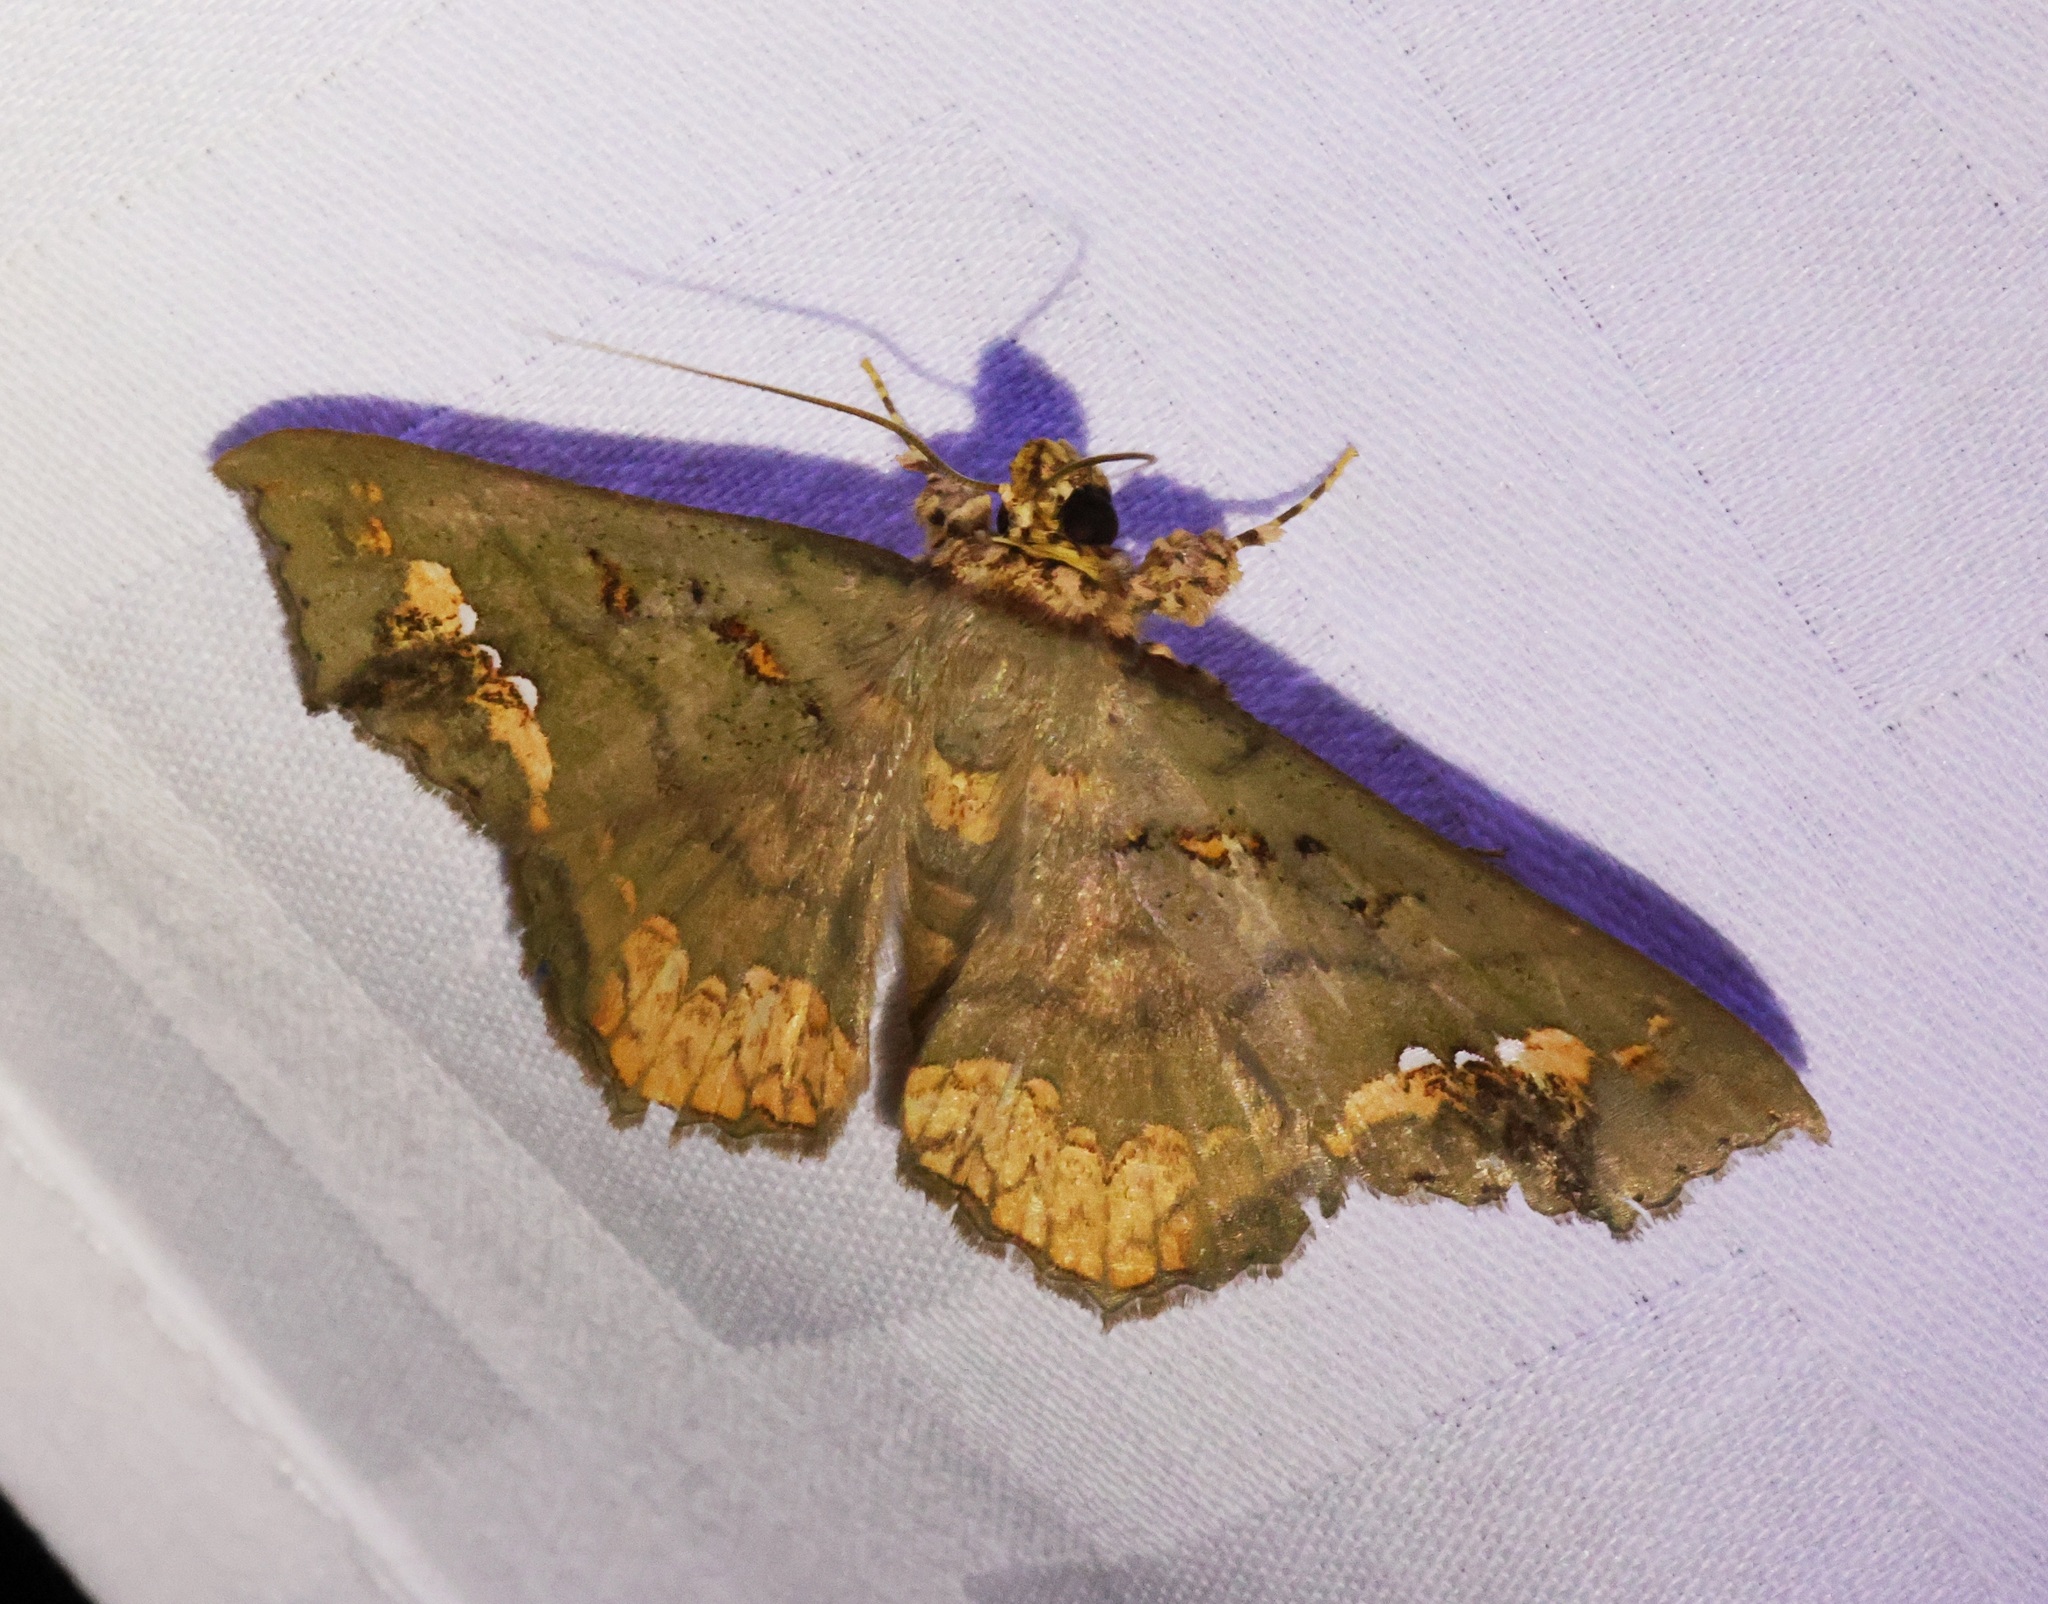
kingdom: Animalia
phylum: Arthropoda
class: Insecta
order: Lepidoptera
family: Erebidae
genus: Lopharthrum
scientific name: Lopharthrum comprimens
